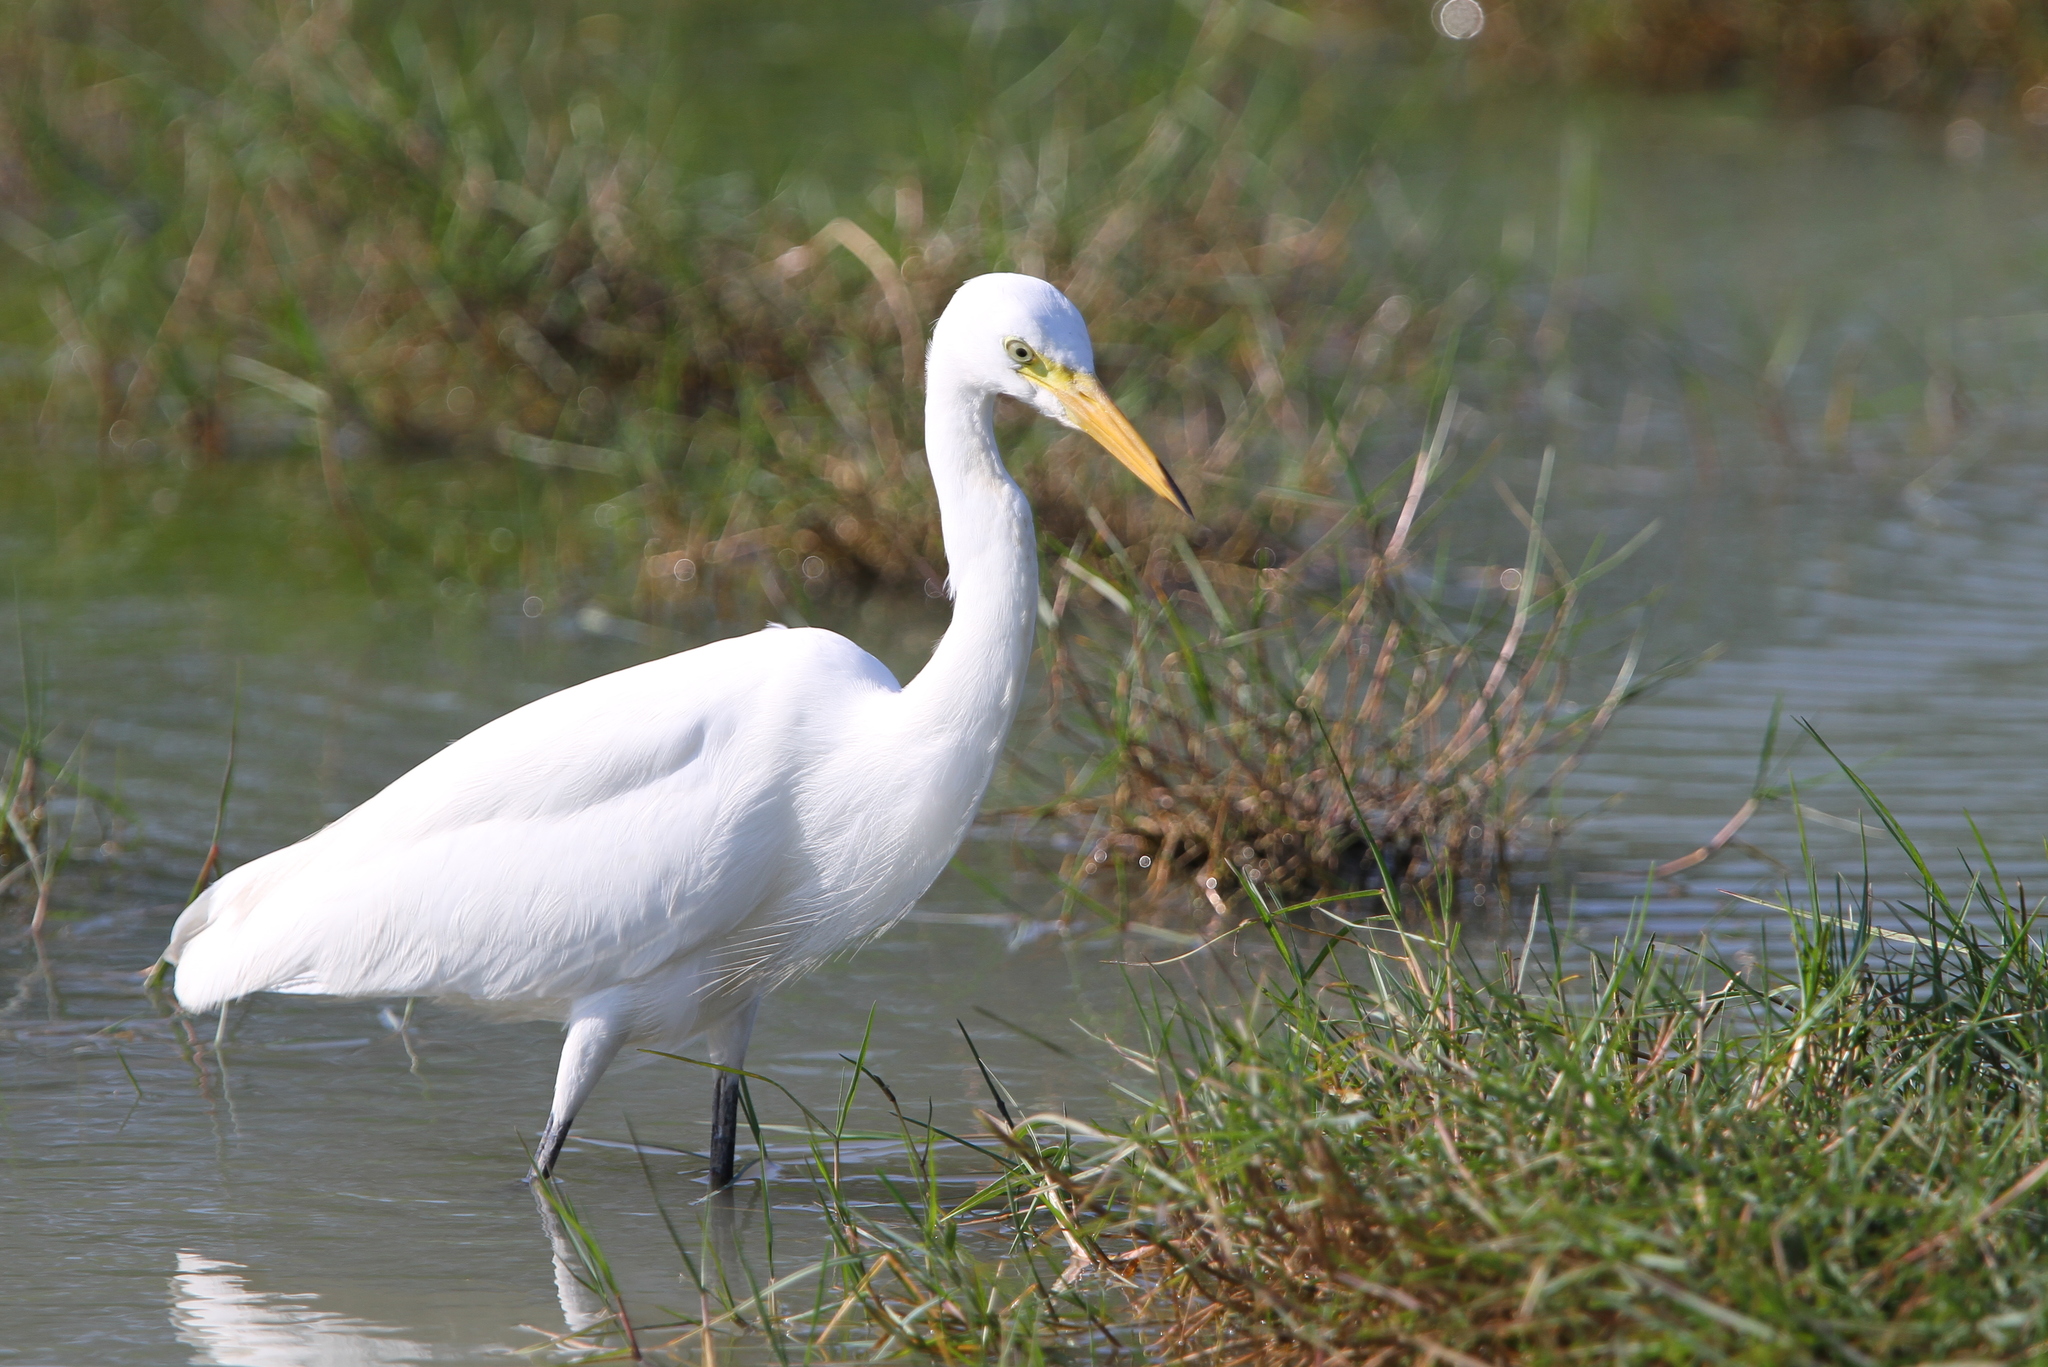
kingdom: Animalia
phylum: Chordata
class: Aves
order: Pelecaniformes
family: Ardeidae
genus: Egretta
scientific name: Egretta intermedia
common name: Intermediate egret
